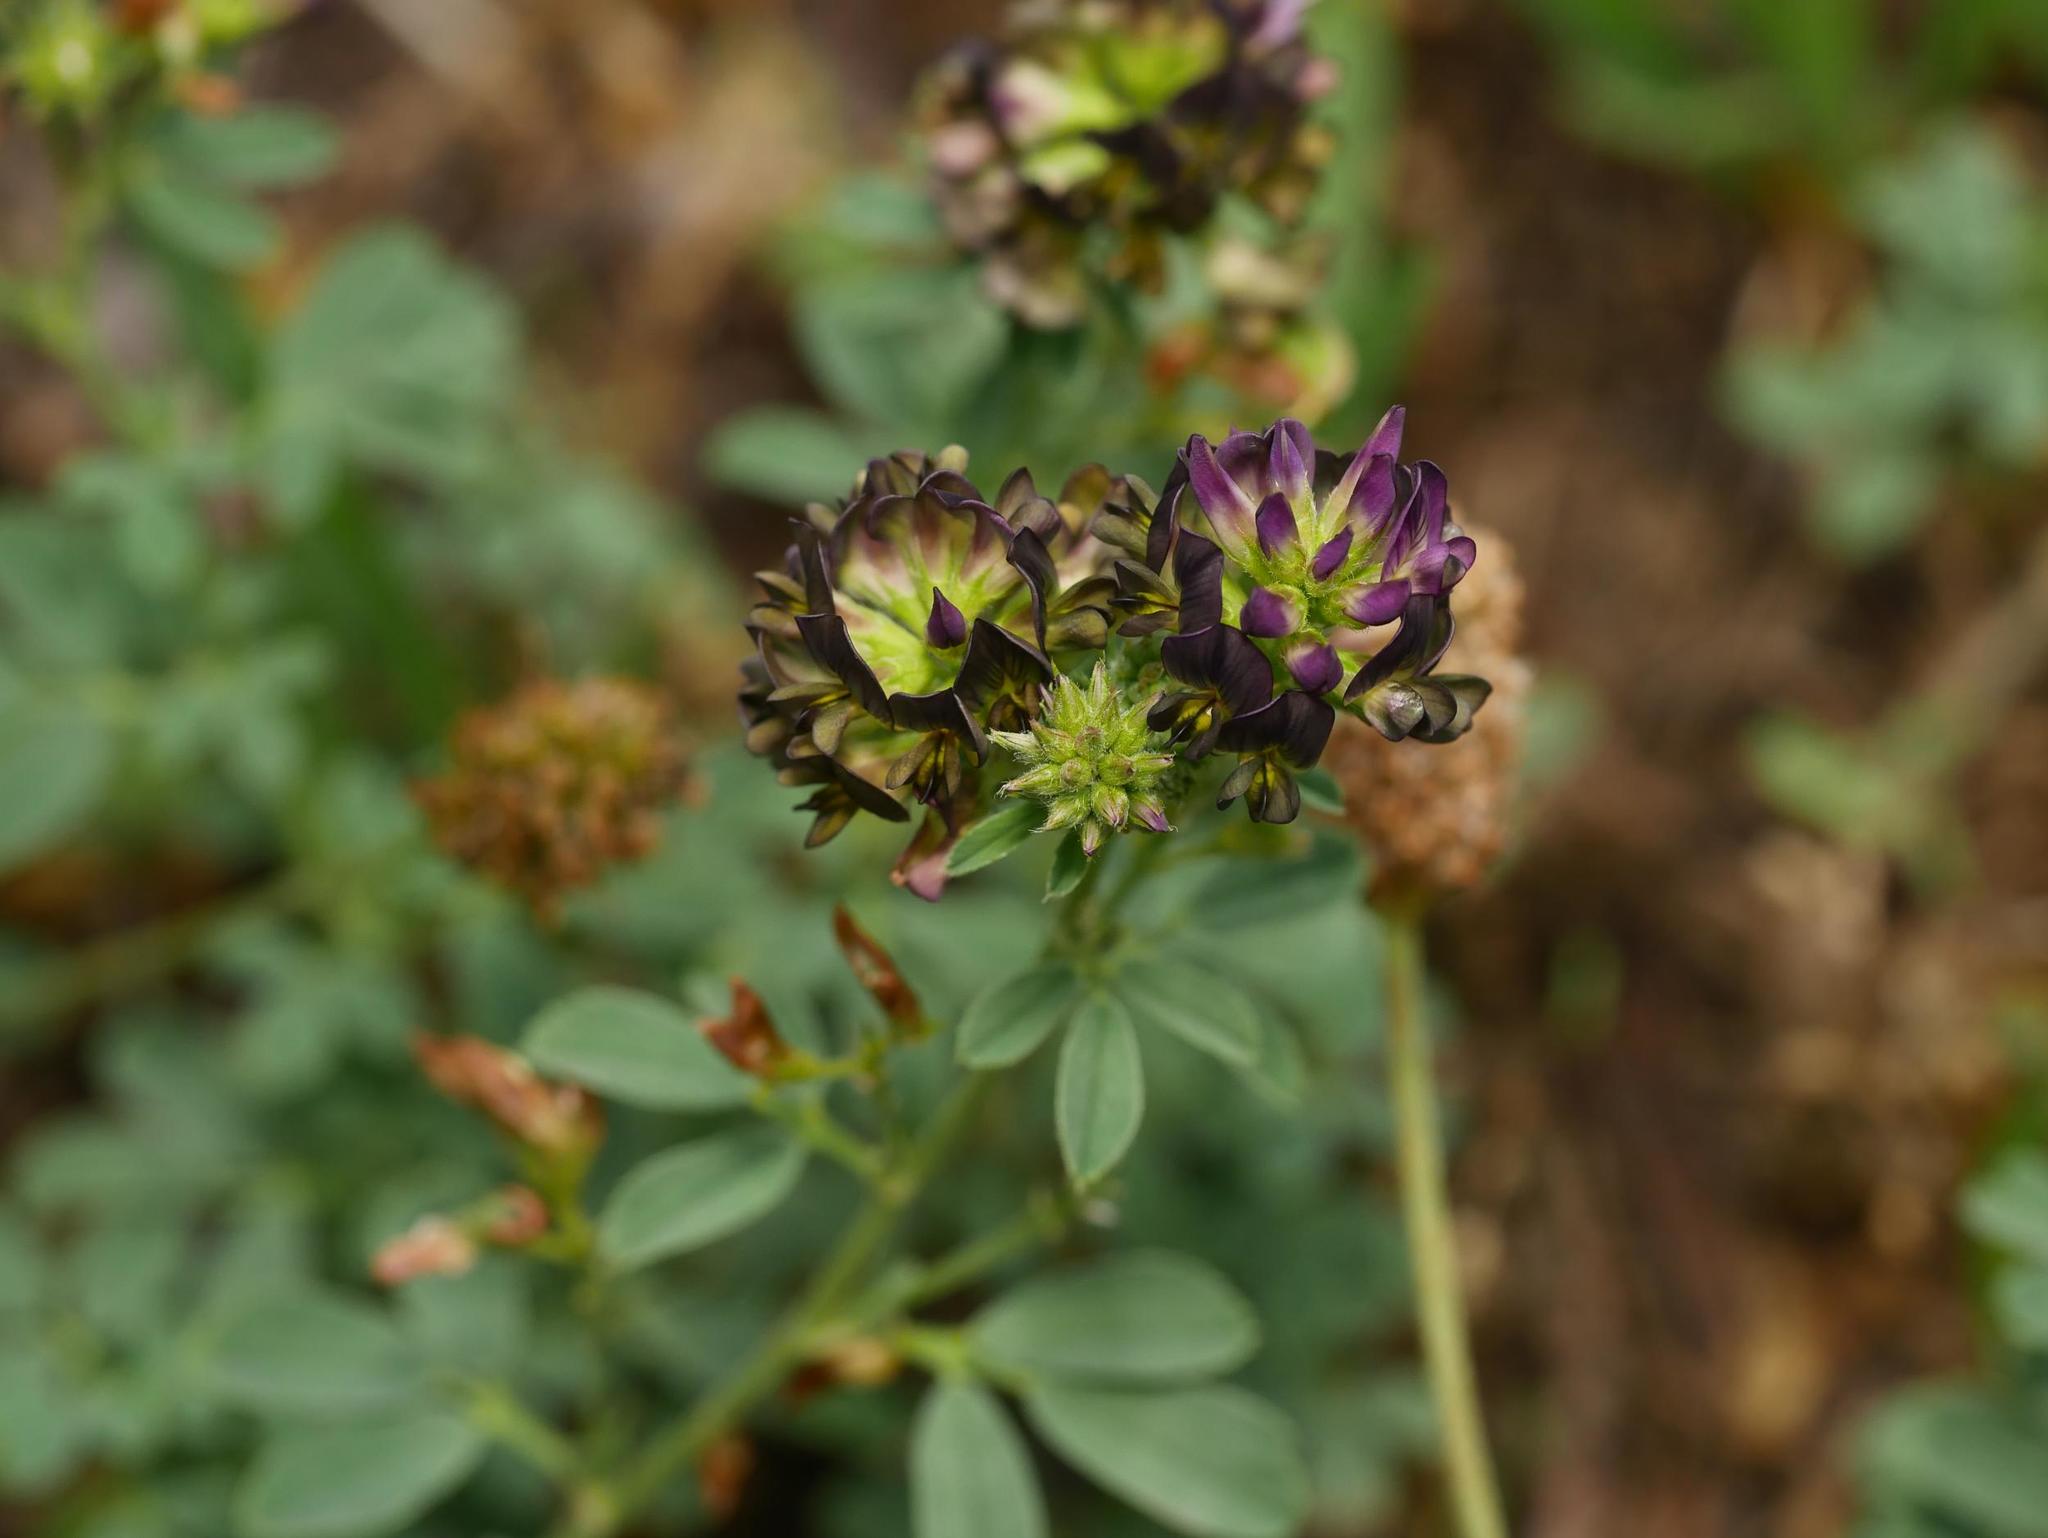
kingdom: Plantae
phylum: Tracheophyta
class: Magnoliopsida
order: Fabales
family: Fabaceae
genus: Medicago
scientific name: Medicago varia
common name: Sand lucerne
